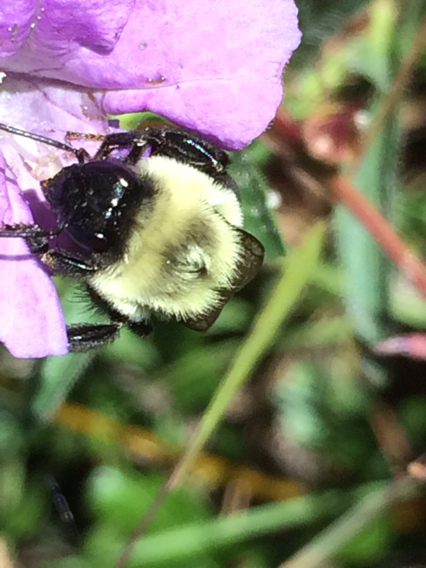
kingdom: Animalia
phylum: Arthropoda
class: Insecta
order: Hymenoptera
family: Apidae
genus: Bombus
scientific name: Bombus impatiens
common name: Common eastern bumble bee
